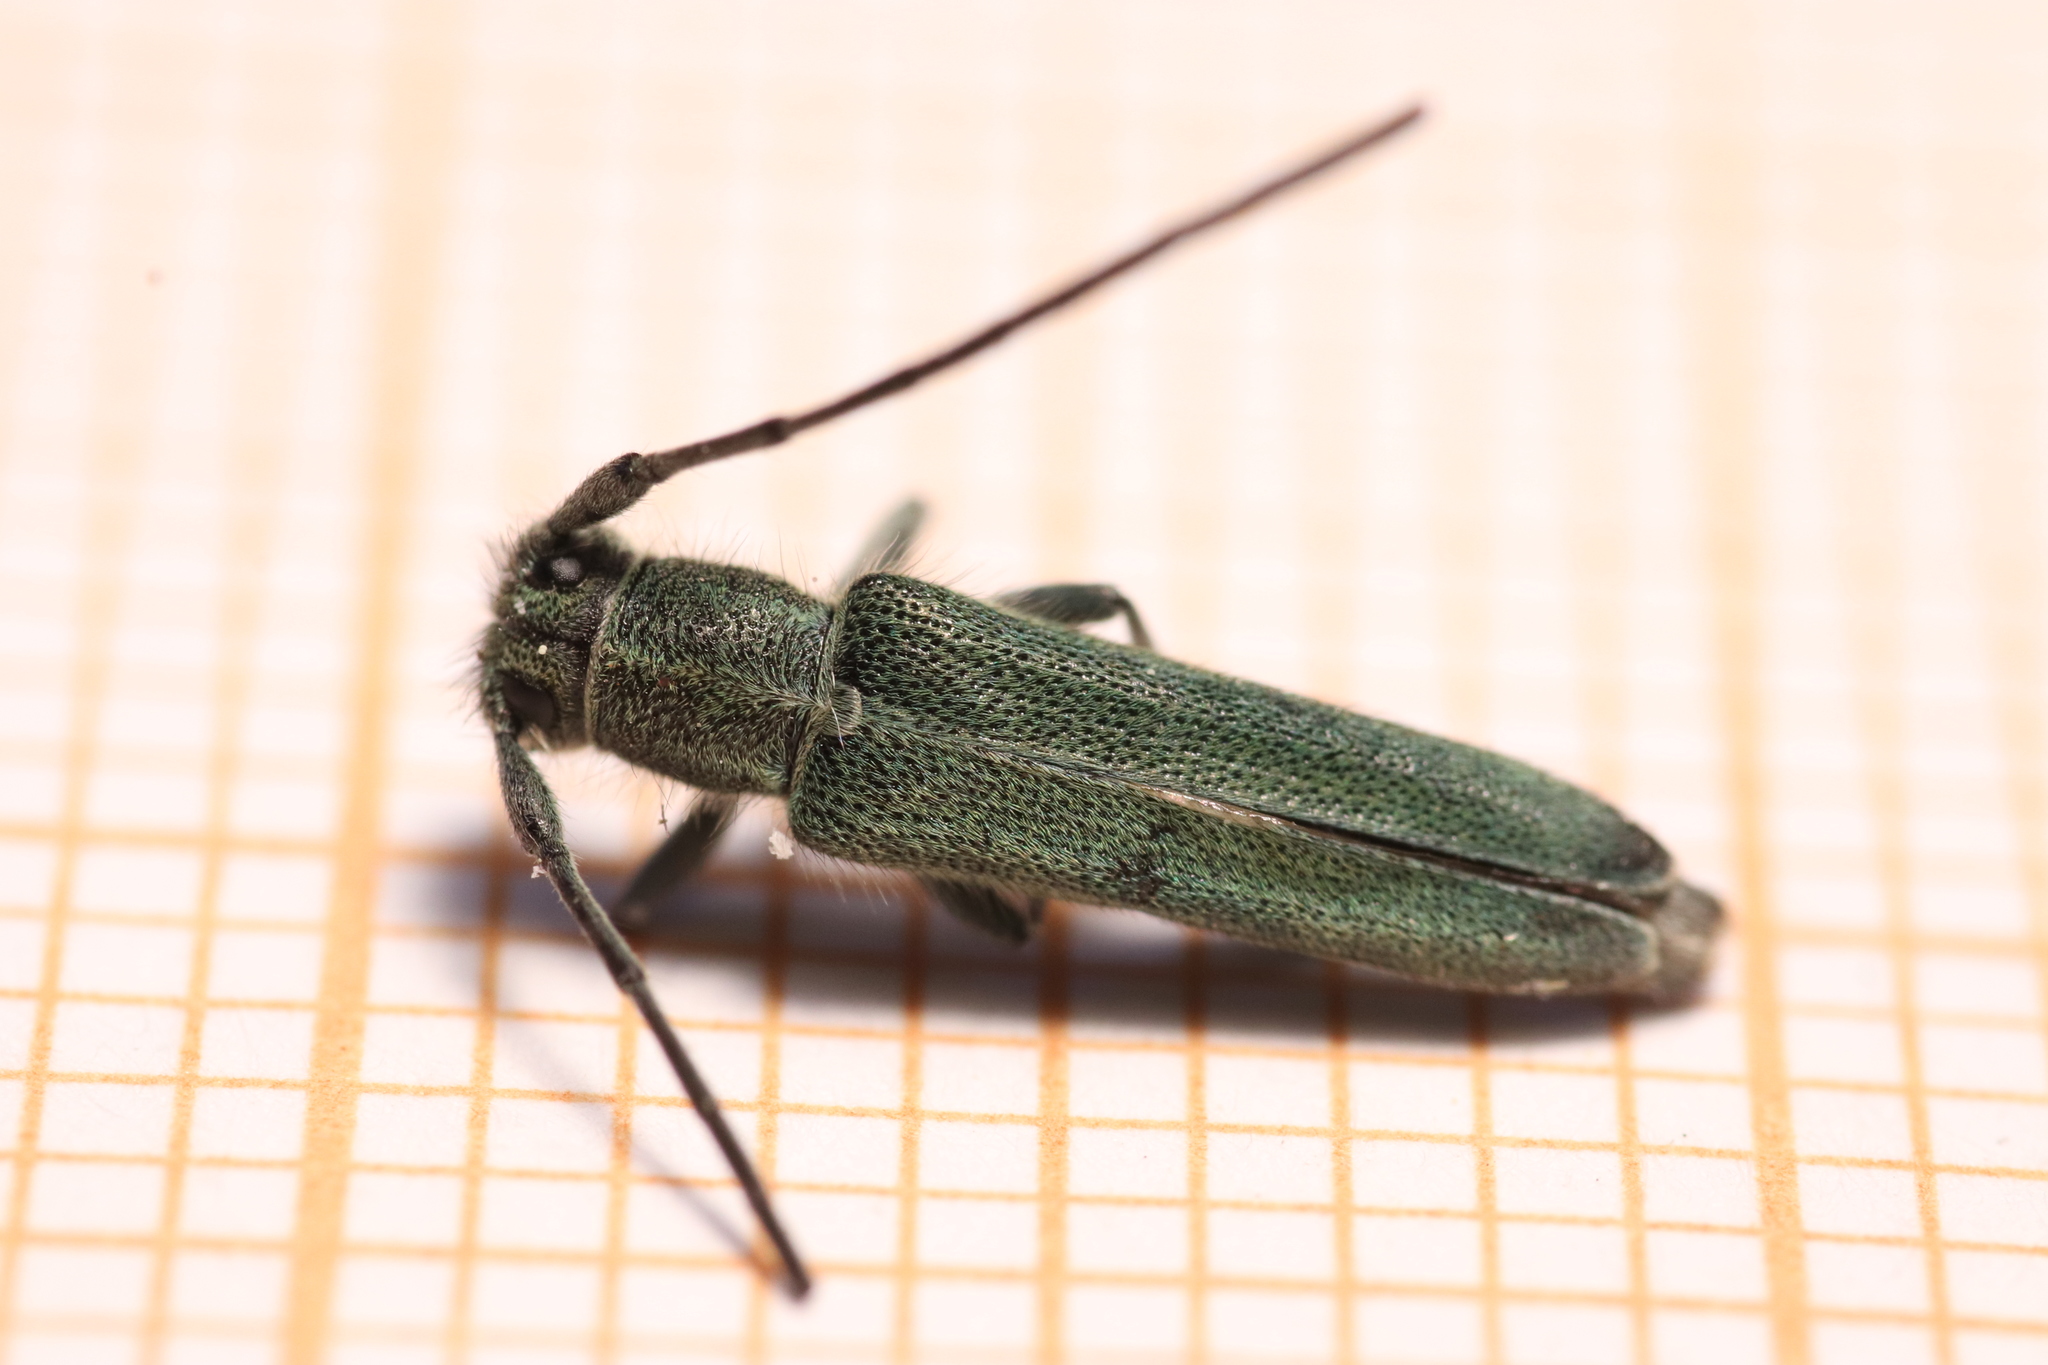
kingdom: Animalia
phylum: Arthropoda
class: Insecta
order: Coleoptera
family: Cerambycidae
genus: Phytoecia
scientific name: Phytoecia coerulescens
